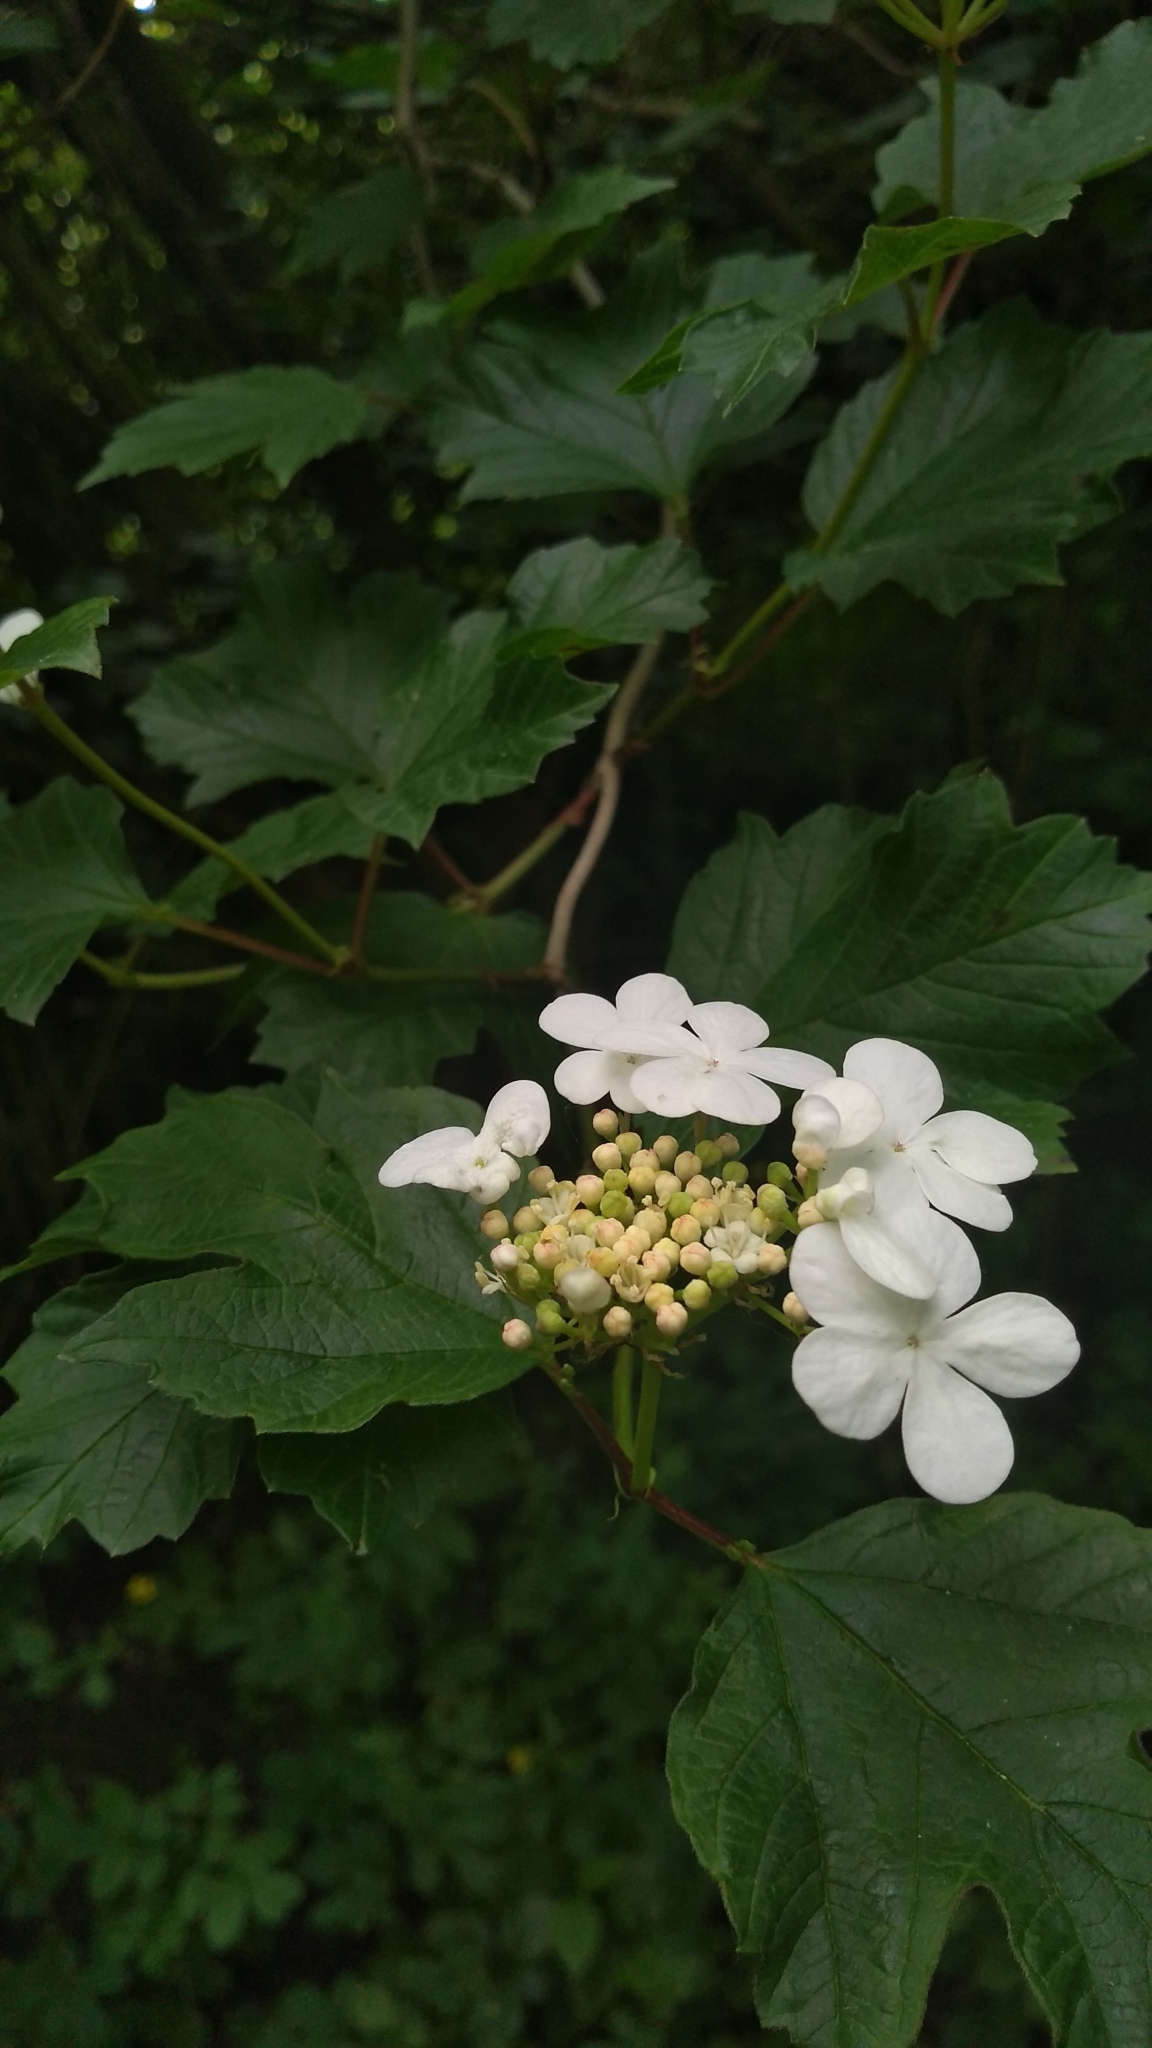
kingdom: Plantae
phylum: Tracheophyta
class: Magnoliopsida
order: Dipsacales
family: Viburnaceae
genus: Viburnum
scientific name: Viburnum opulus
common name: Guelder-rose
